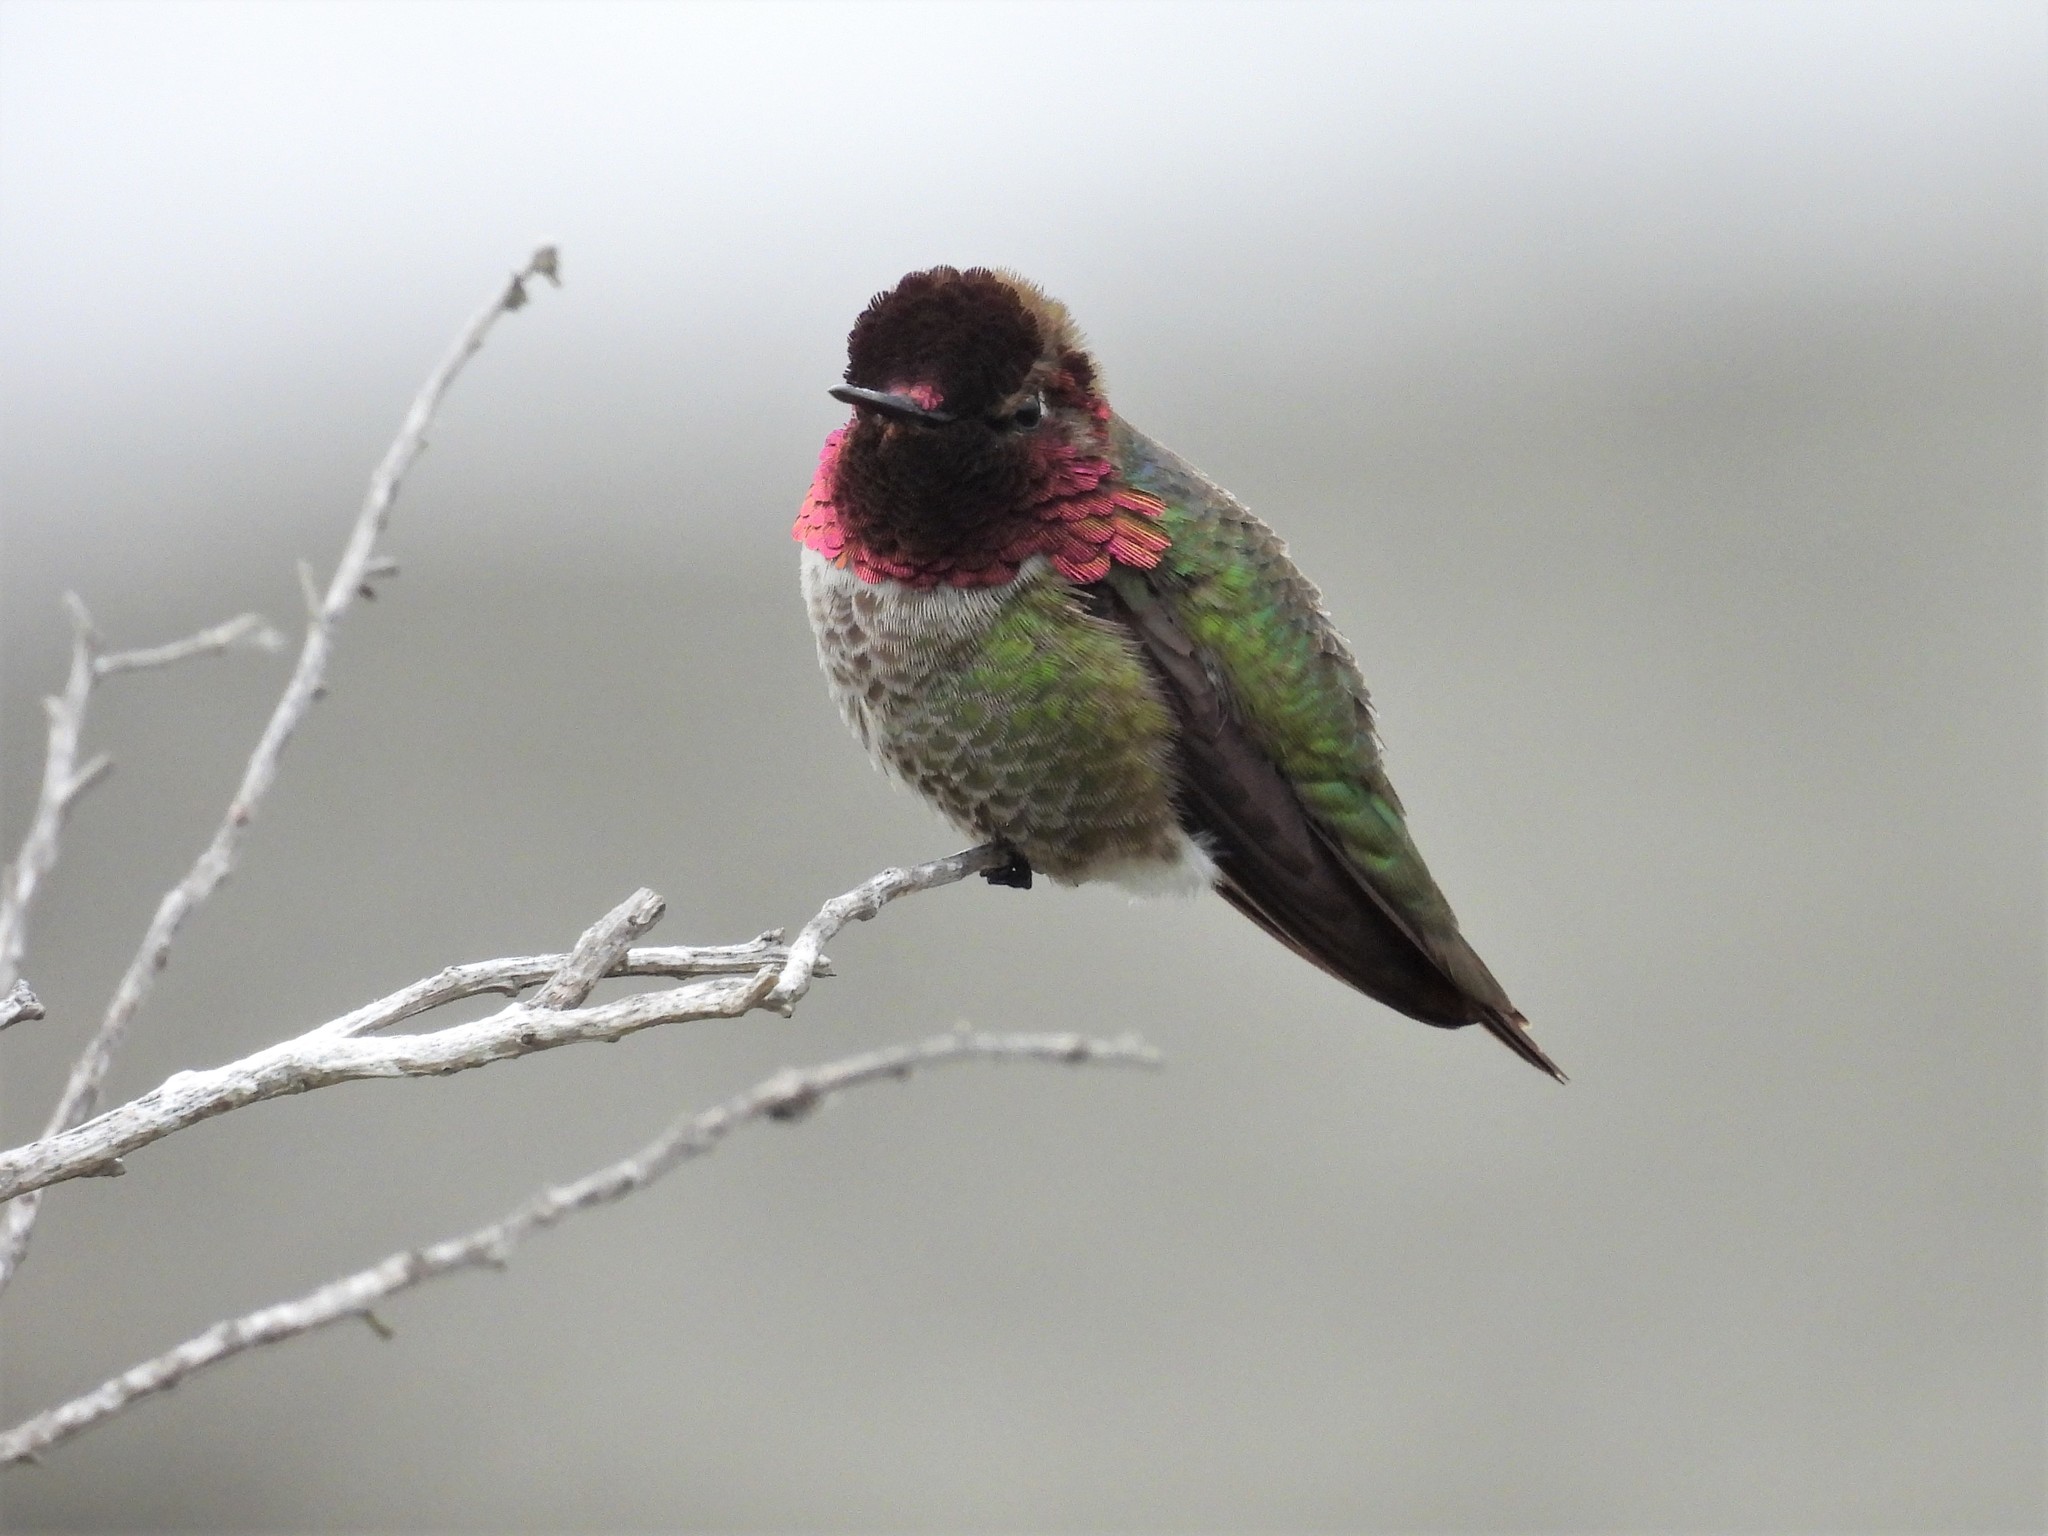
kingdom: Animalia
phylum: Chordata
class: Aves
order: Apodiformes
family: Trochilidae
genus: Calypte
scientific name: Calypte anna
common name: Anna's hummingbird
